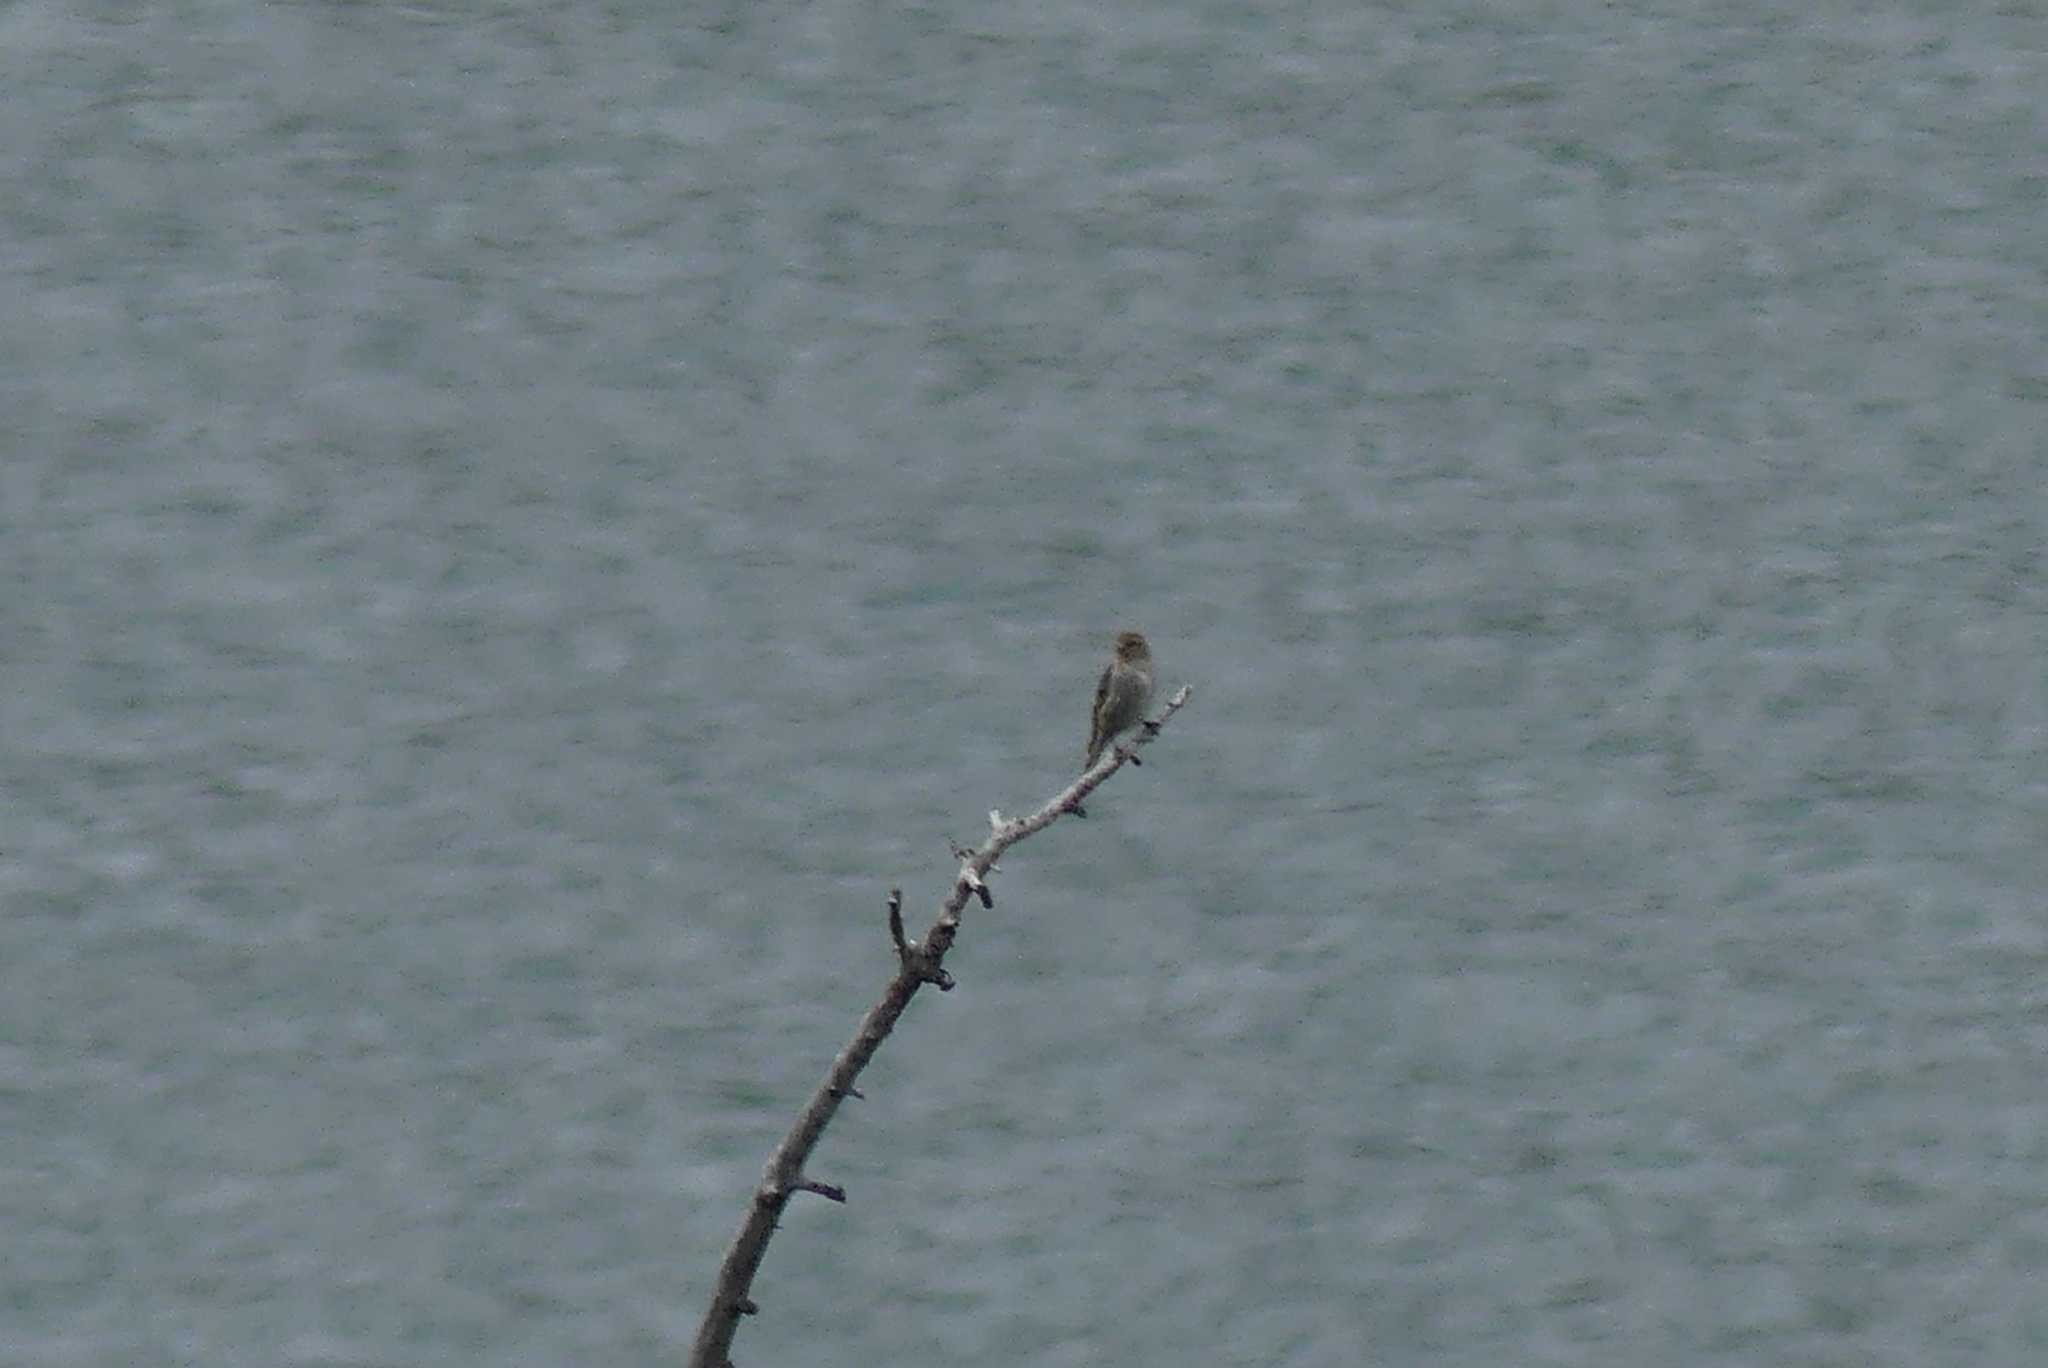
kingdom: Animalia
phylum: Chordata
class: Aves
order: Passeriformes
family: Fringillidae
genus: Spinus
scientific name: Spinus pinus
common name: Pine siskin
